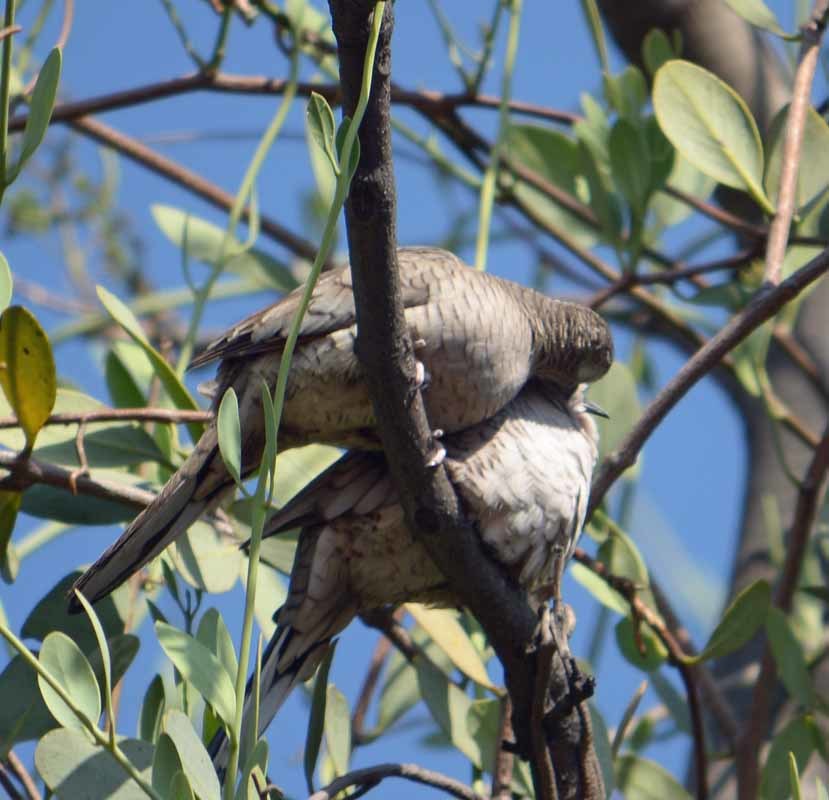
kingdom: Animalia
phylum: Chordata
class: Aves
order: Columbiformes
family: Columbidae
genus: Columbina
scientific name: Columbina inca
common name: Inca dove
